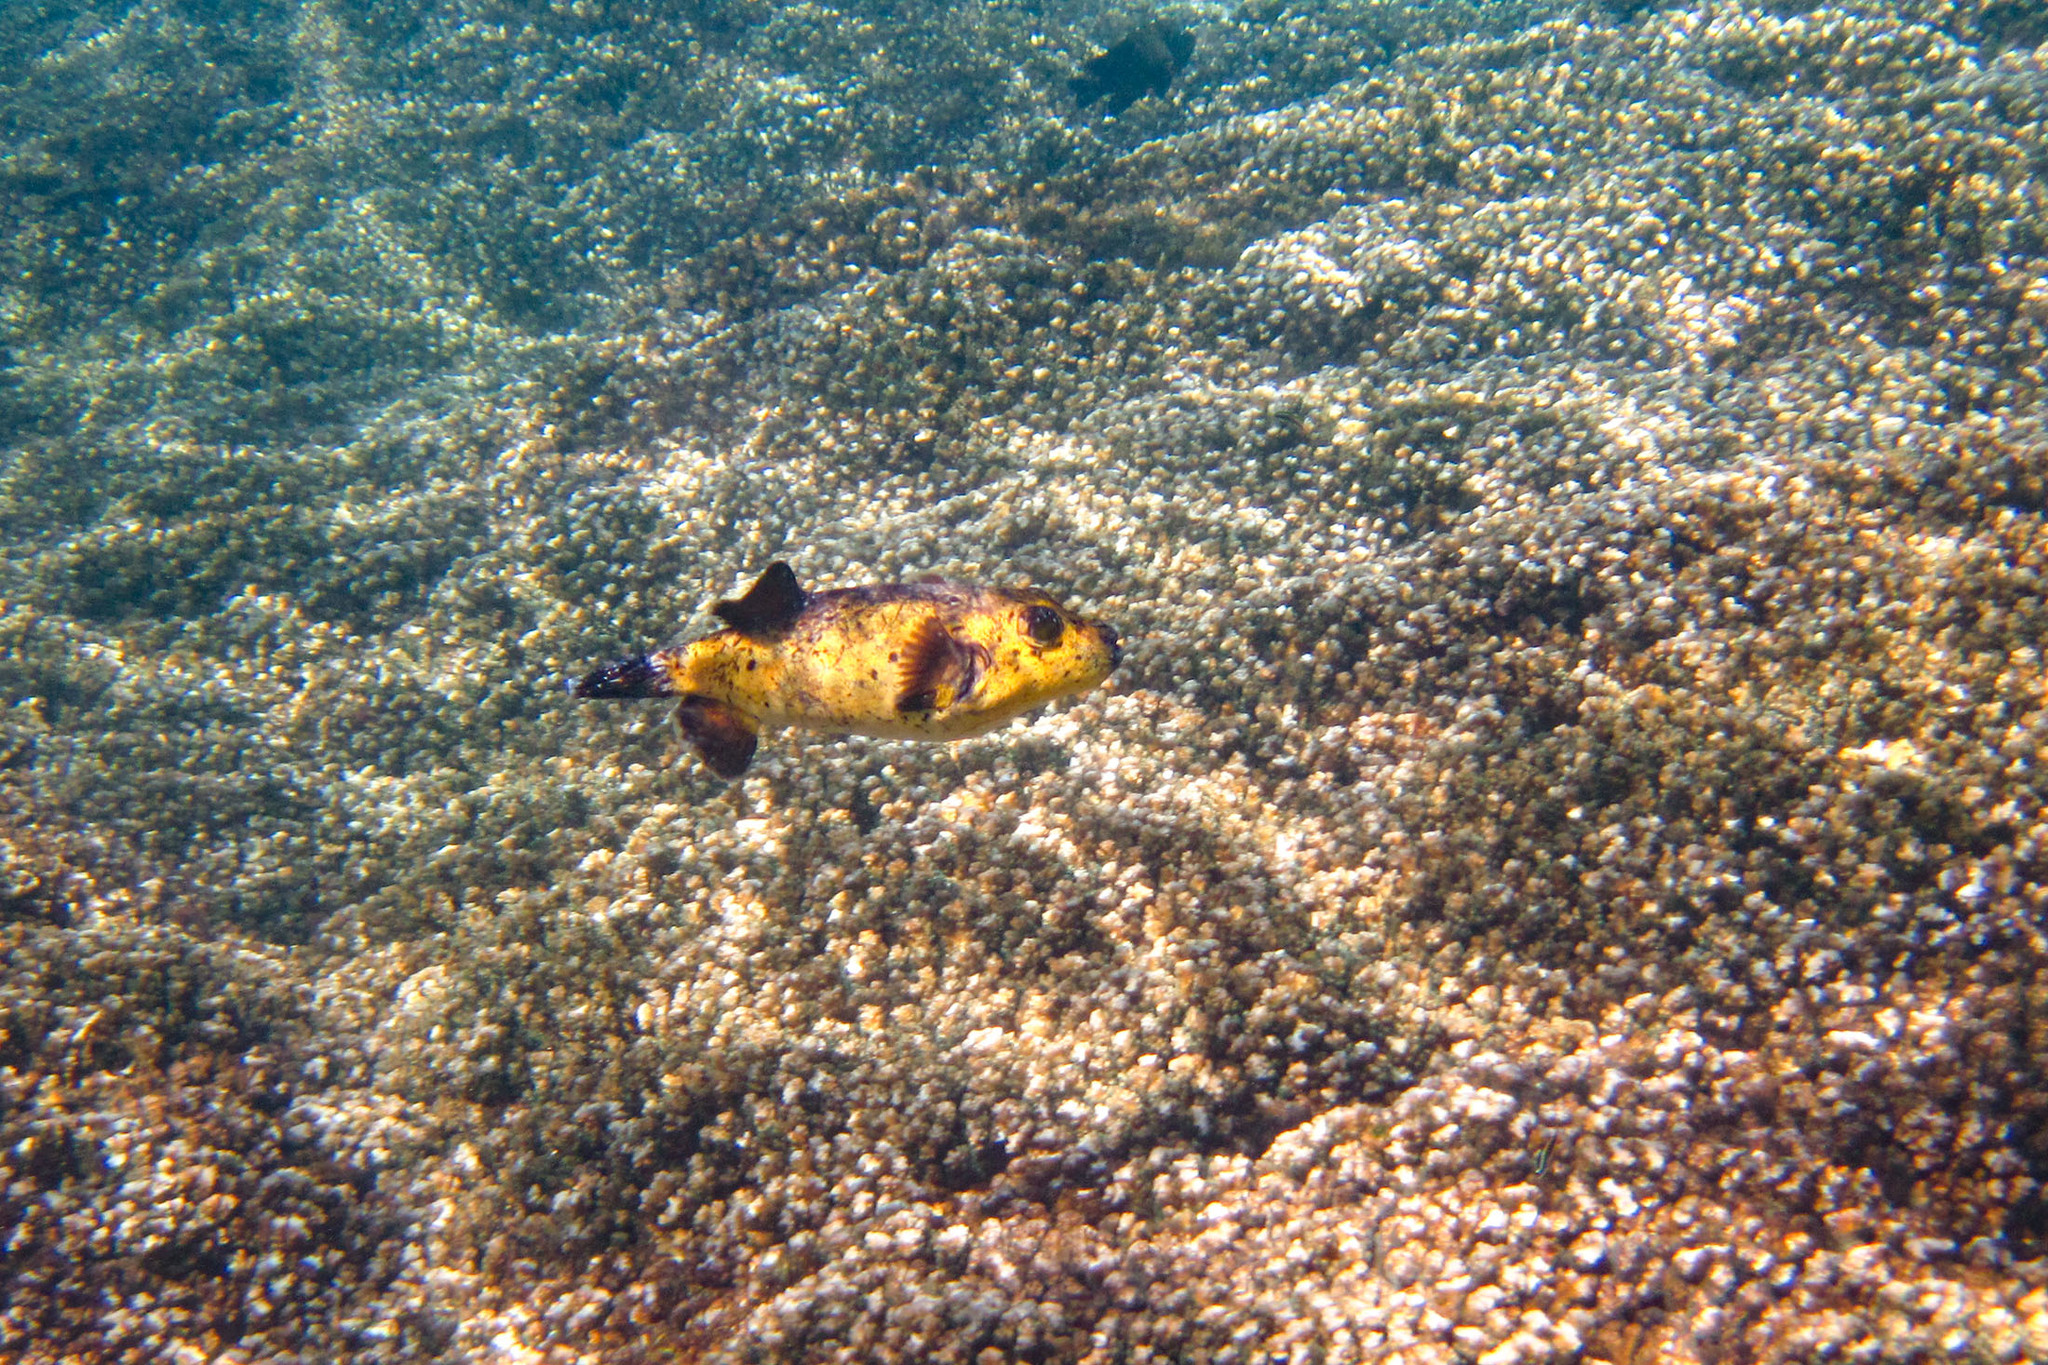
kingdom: Animalia
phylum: Chordata
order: Tetraodontiformes
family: Tetraodontidae
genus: Arothron
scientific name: Arothron meleagris
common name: Guinea-fowl pufferfish
